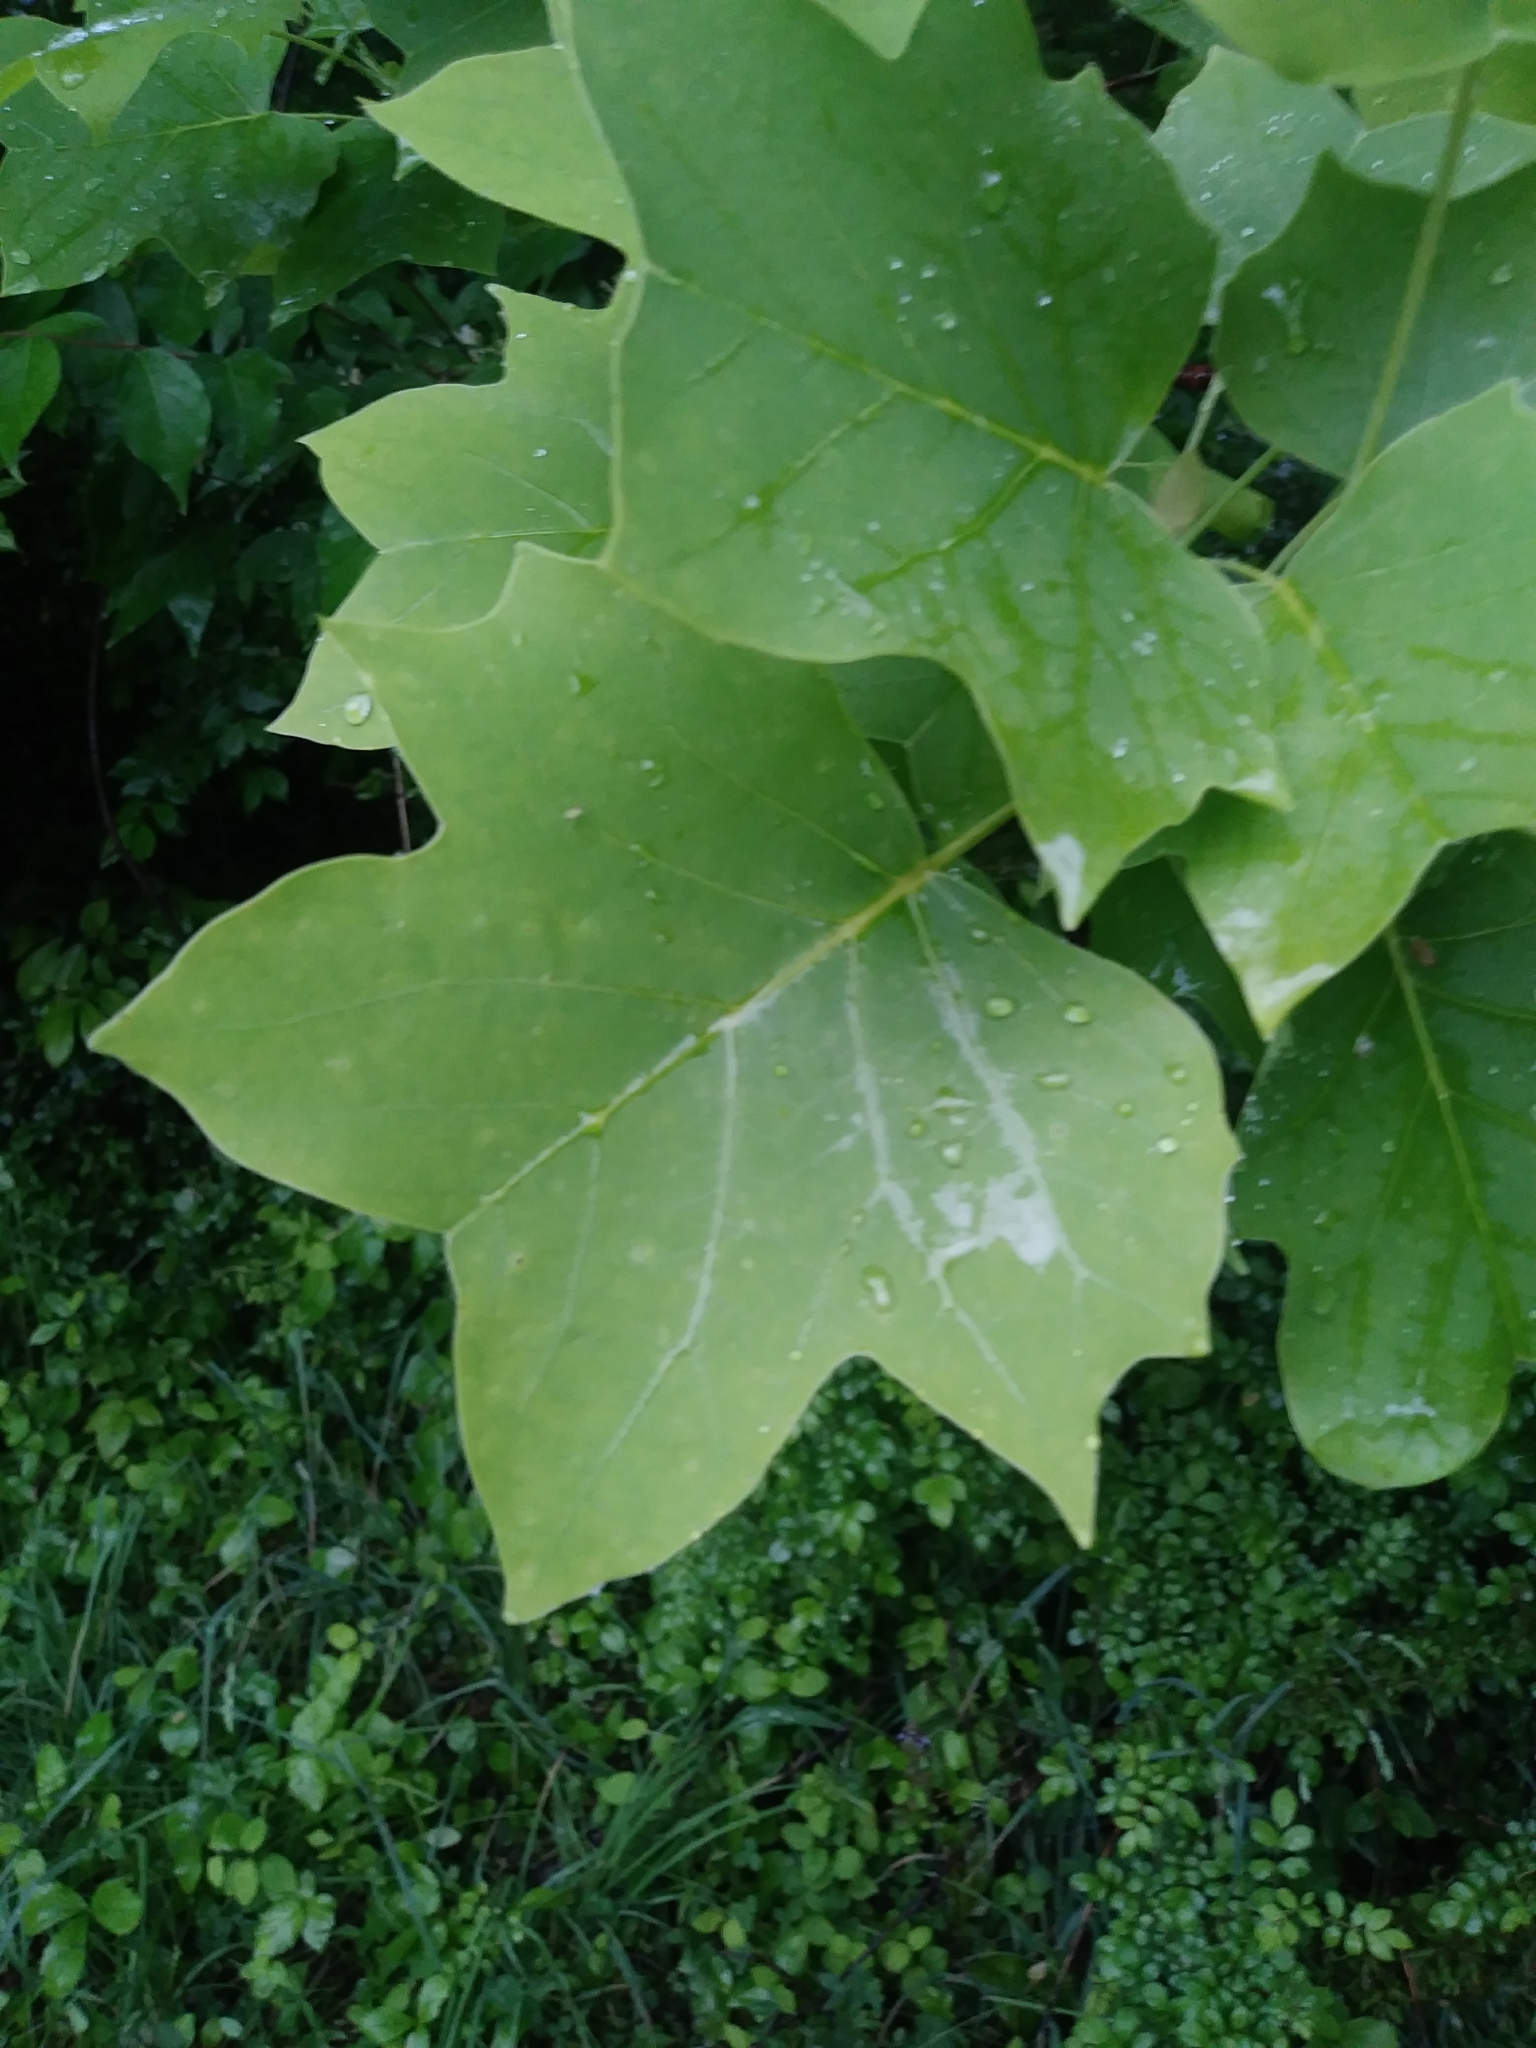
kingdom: Plantae
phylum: Tracheophyta
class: Magnoliopsida
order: Magnoliales
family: Magnoliaceae
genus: Liriodendron
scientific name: Liriodendron tulipifera
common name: Tulip tree
